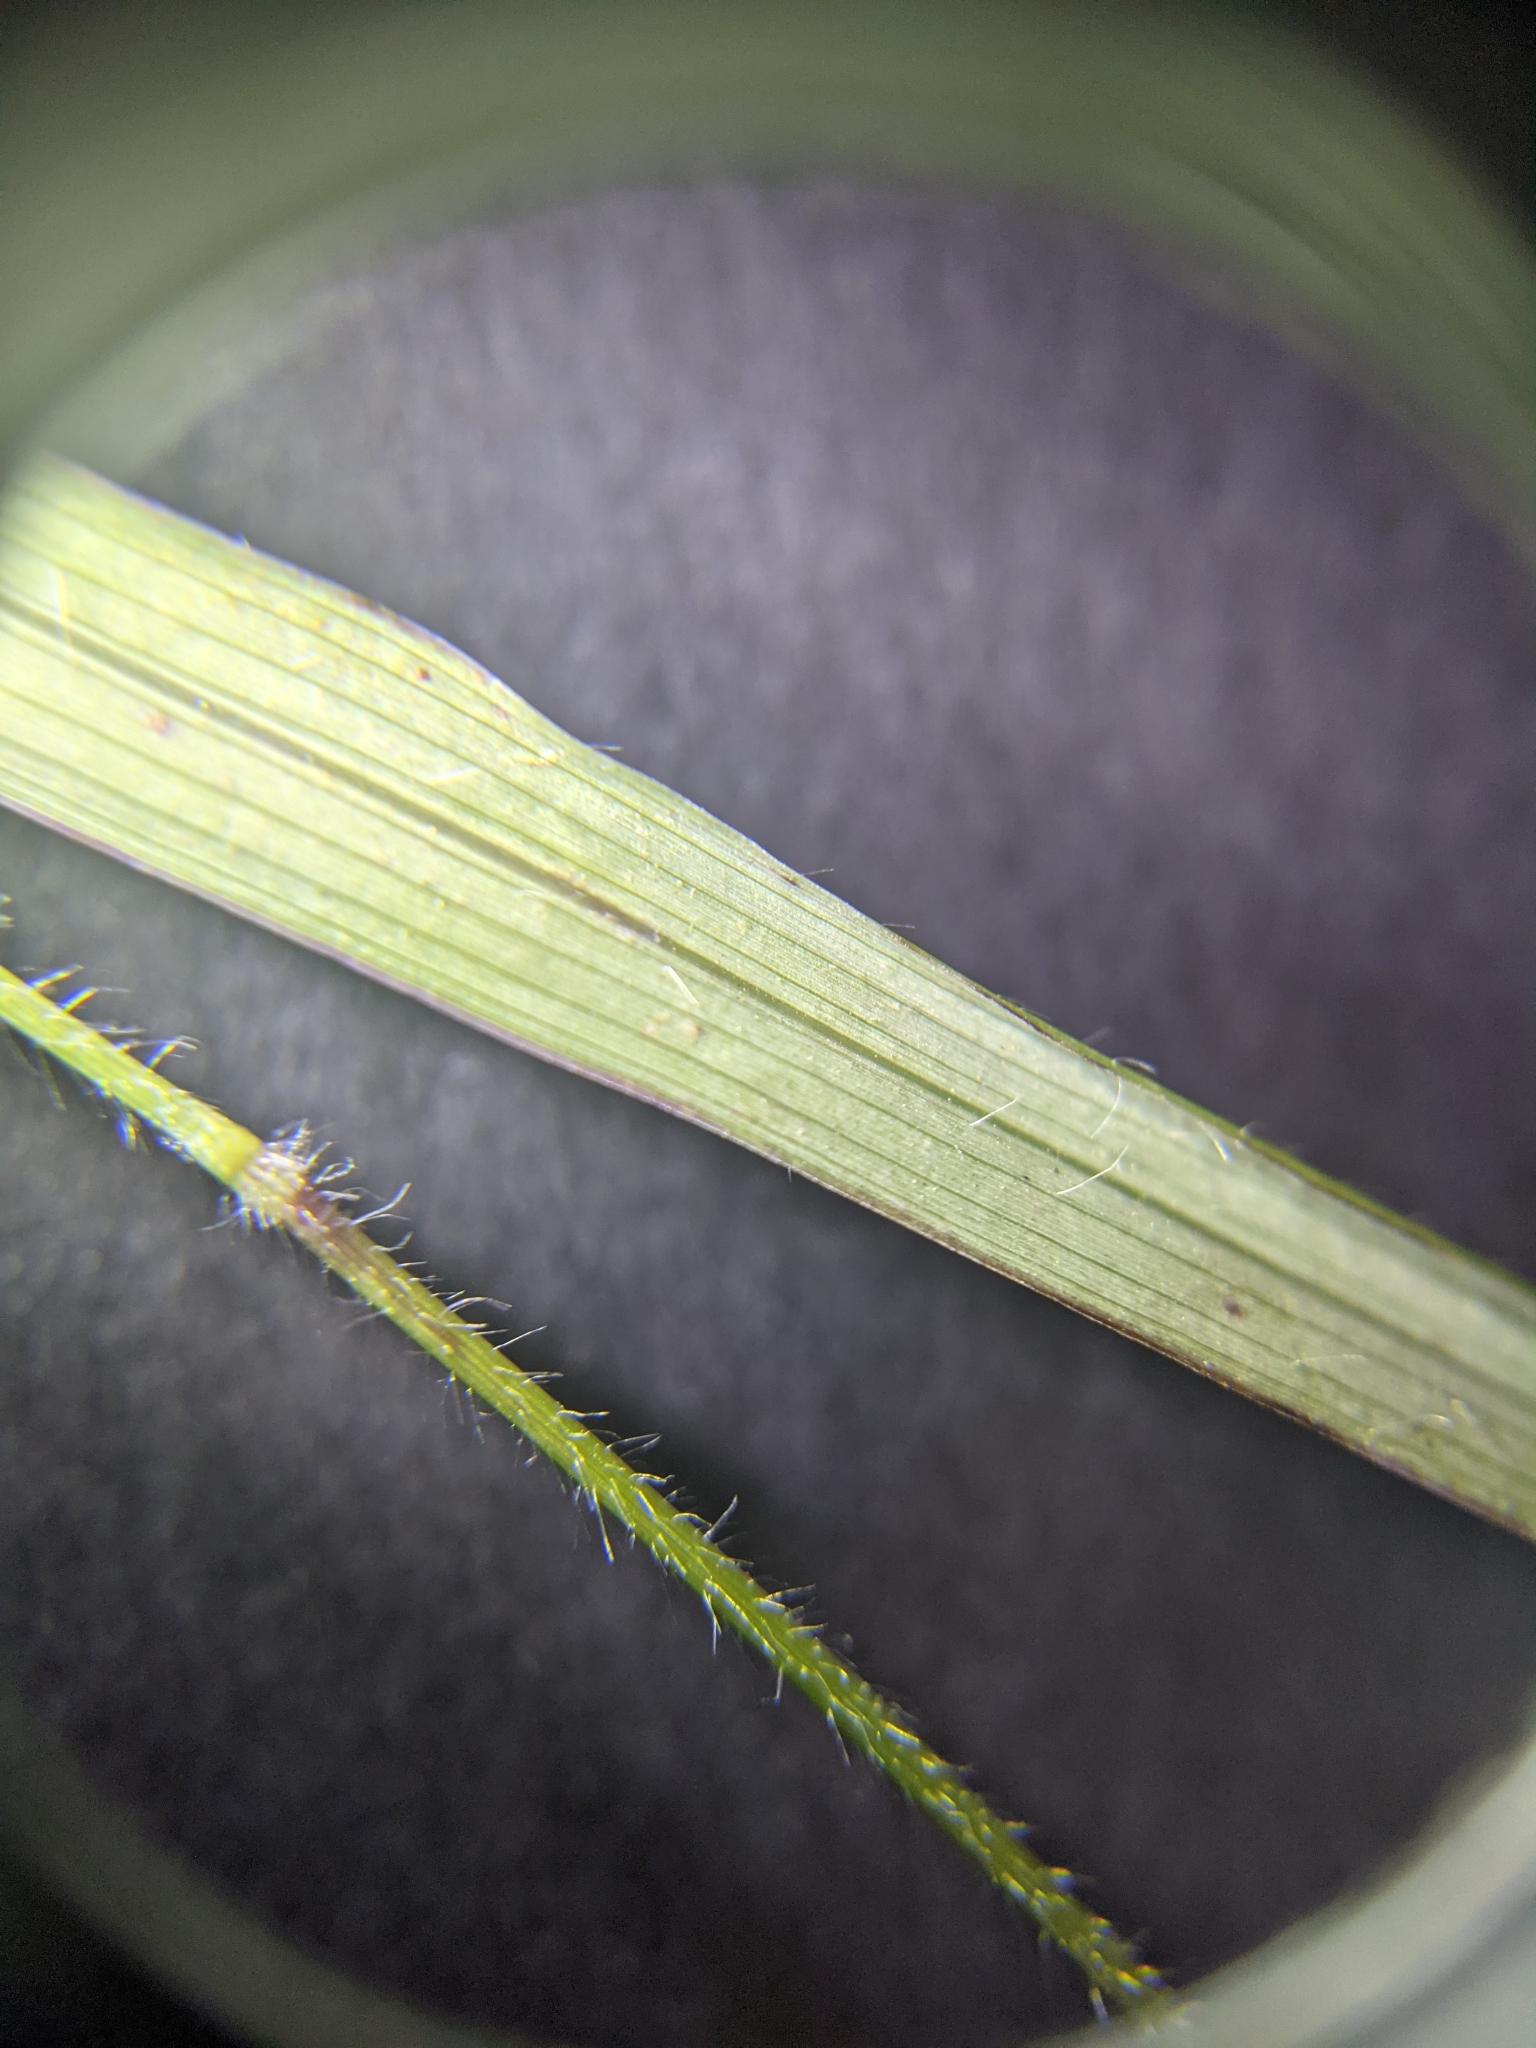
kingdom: Plantae
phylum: Tracheophyta
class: Liliopsida
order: Poales
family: Poaceae
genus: Panicum
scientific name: Panicum diffusum
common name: Spreading panicgrass
